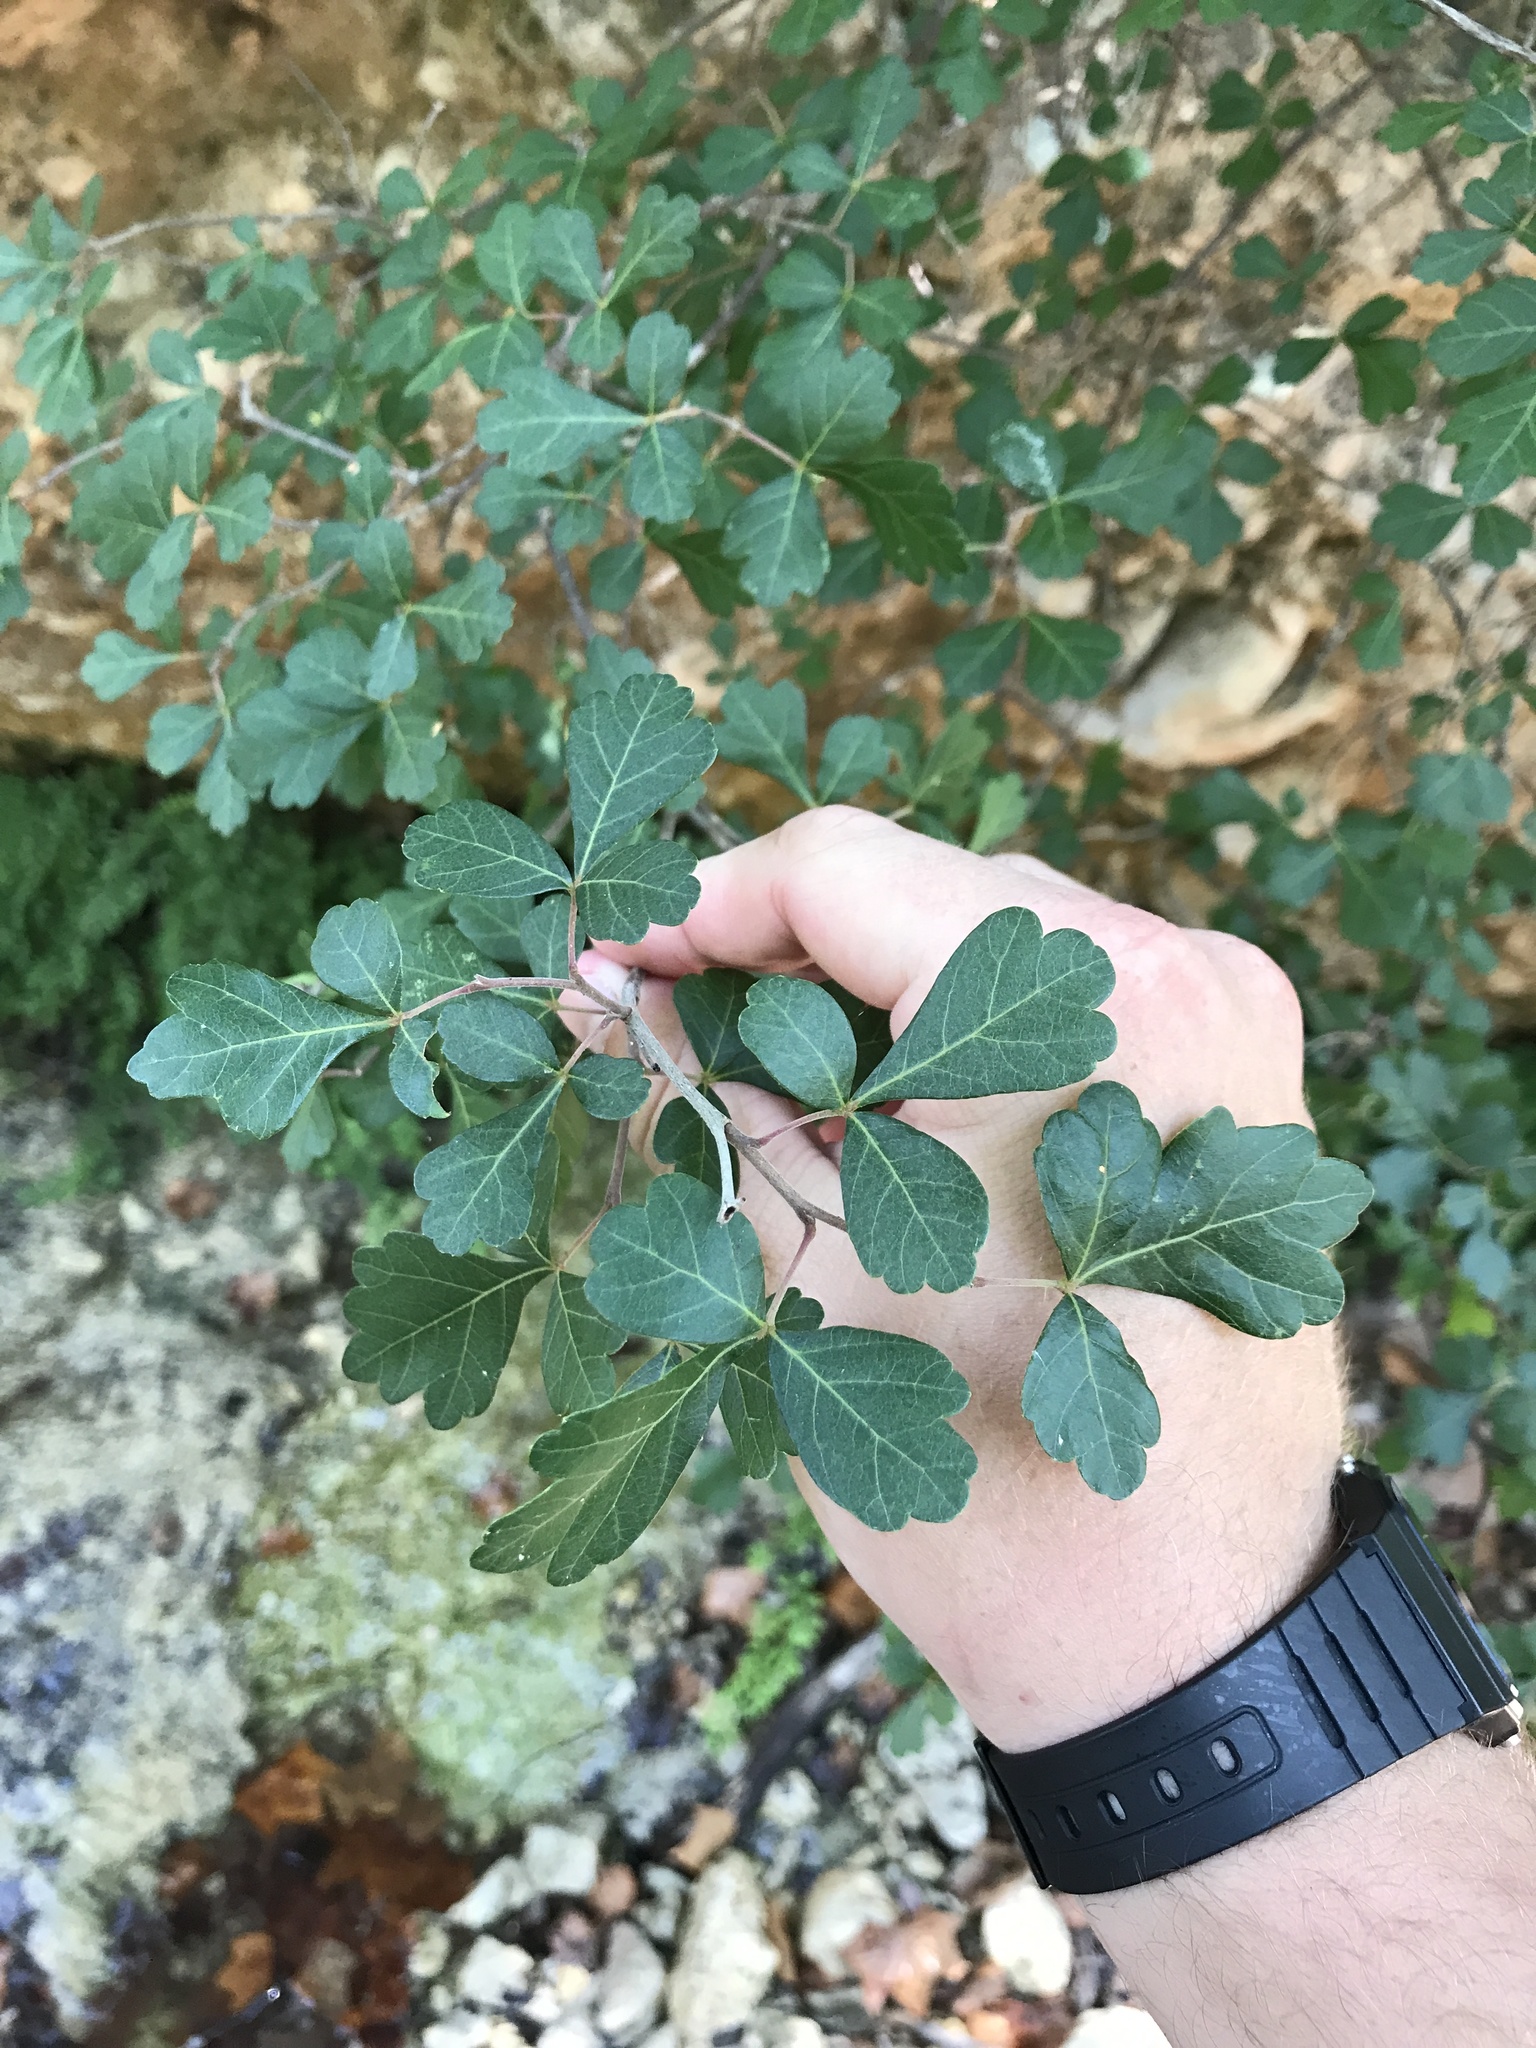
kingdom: Plantae
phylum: Tracheophyta
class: Magnoliopsida
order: Sapindales
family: Anacardiaceae
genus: Rhus
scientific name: Rhus aromatica
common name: Aromatic sumac
